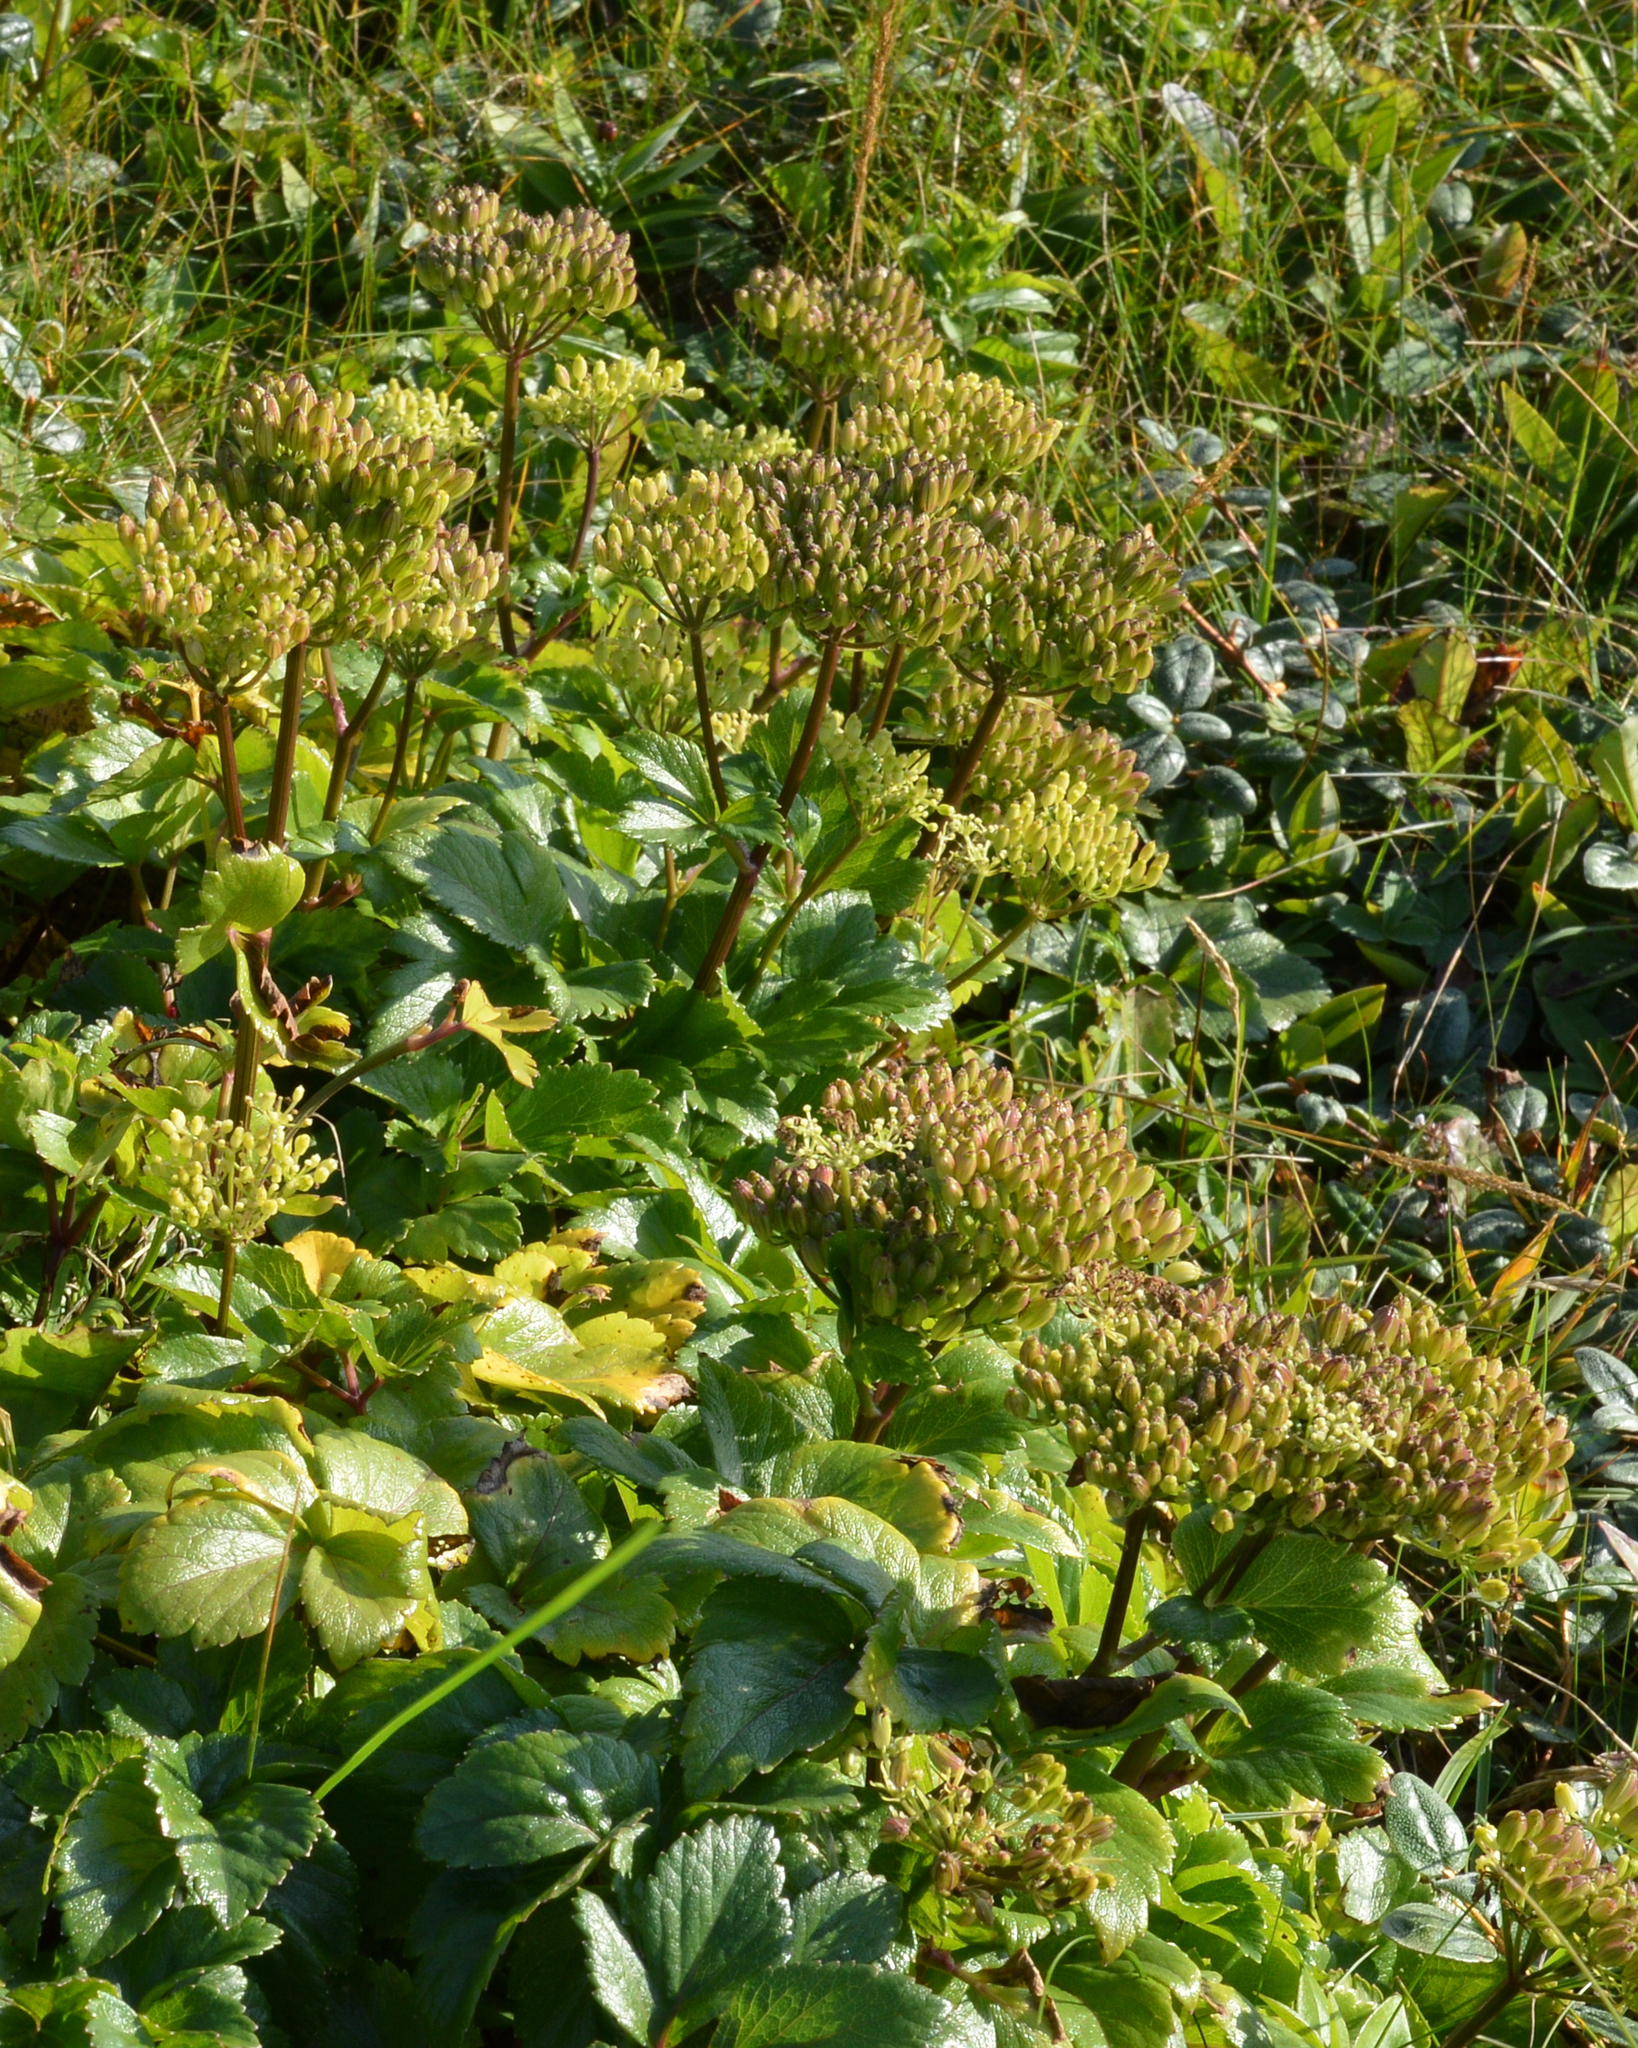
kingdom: Plantae
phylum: Tracheophyta
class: Magnoliopsida
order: Apiales
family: Apiaceae
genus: Ligusticum
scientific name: Ligusticum scothicum
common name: Beach lovage
